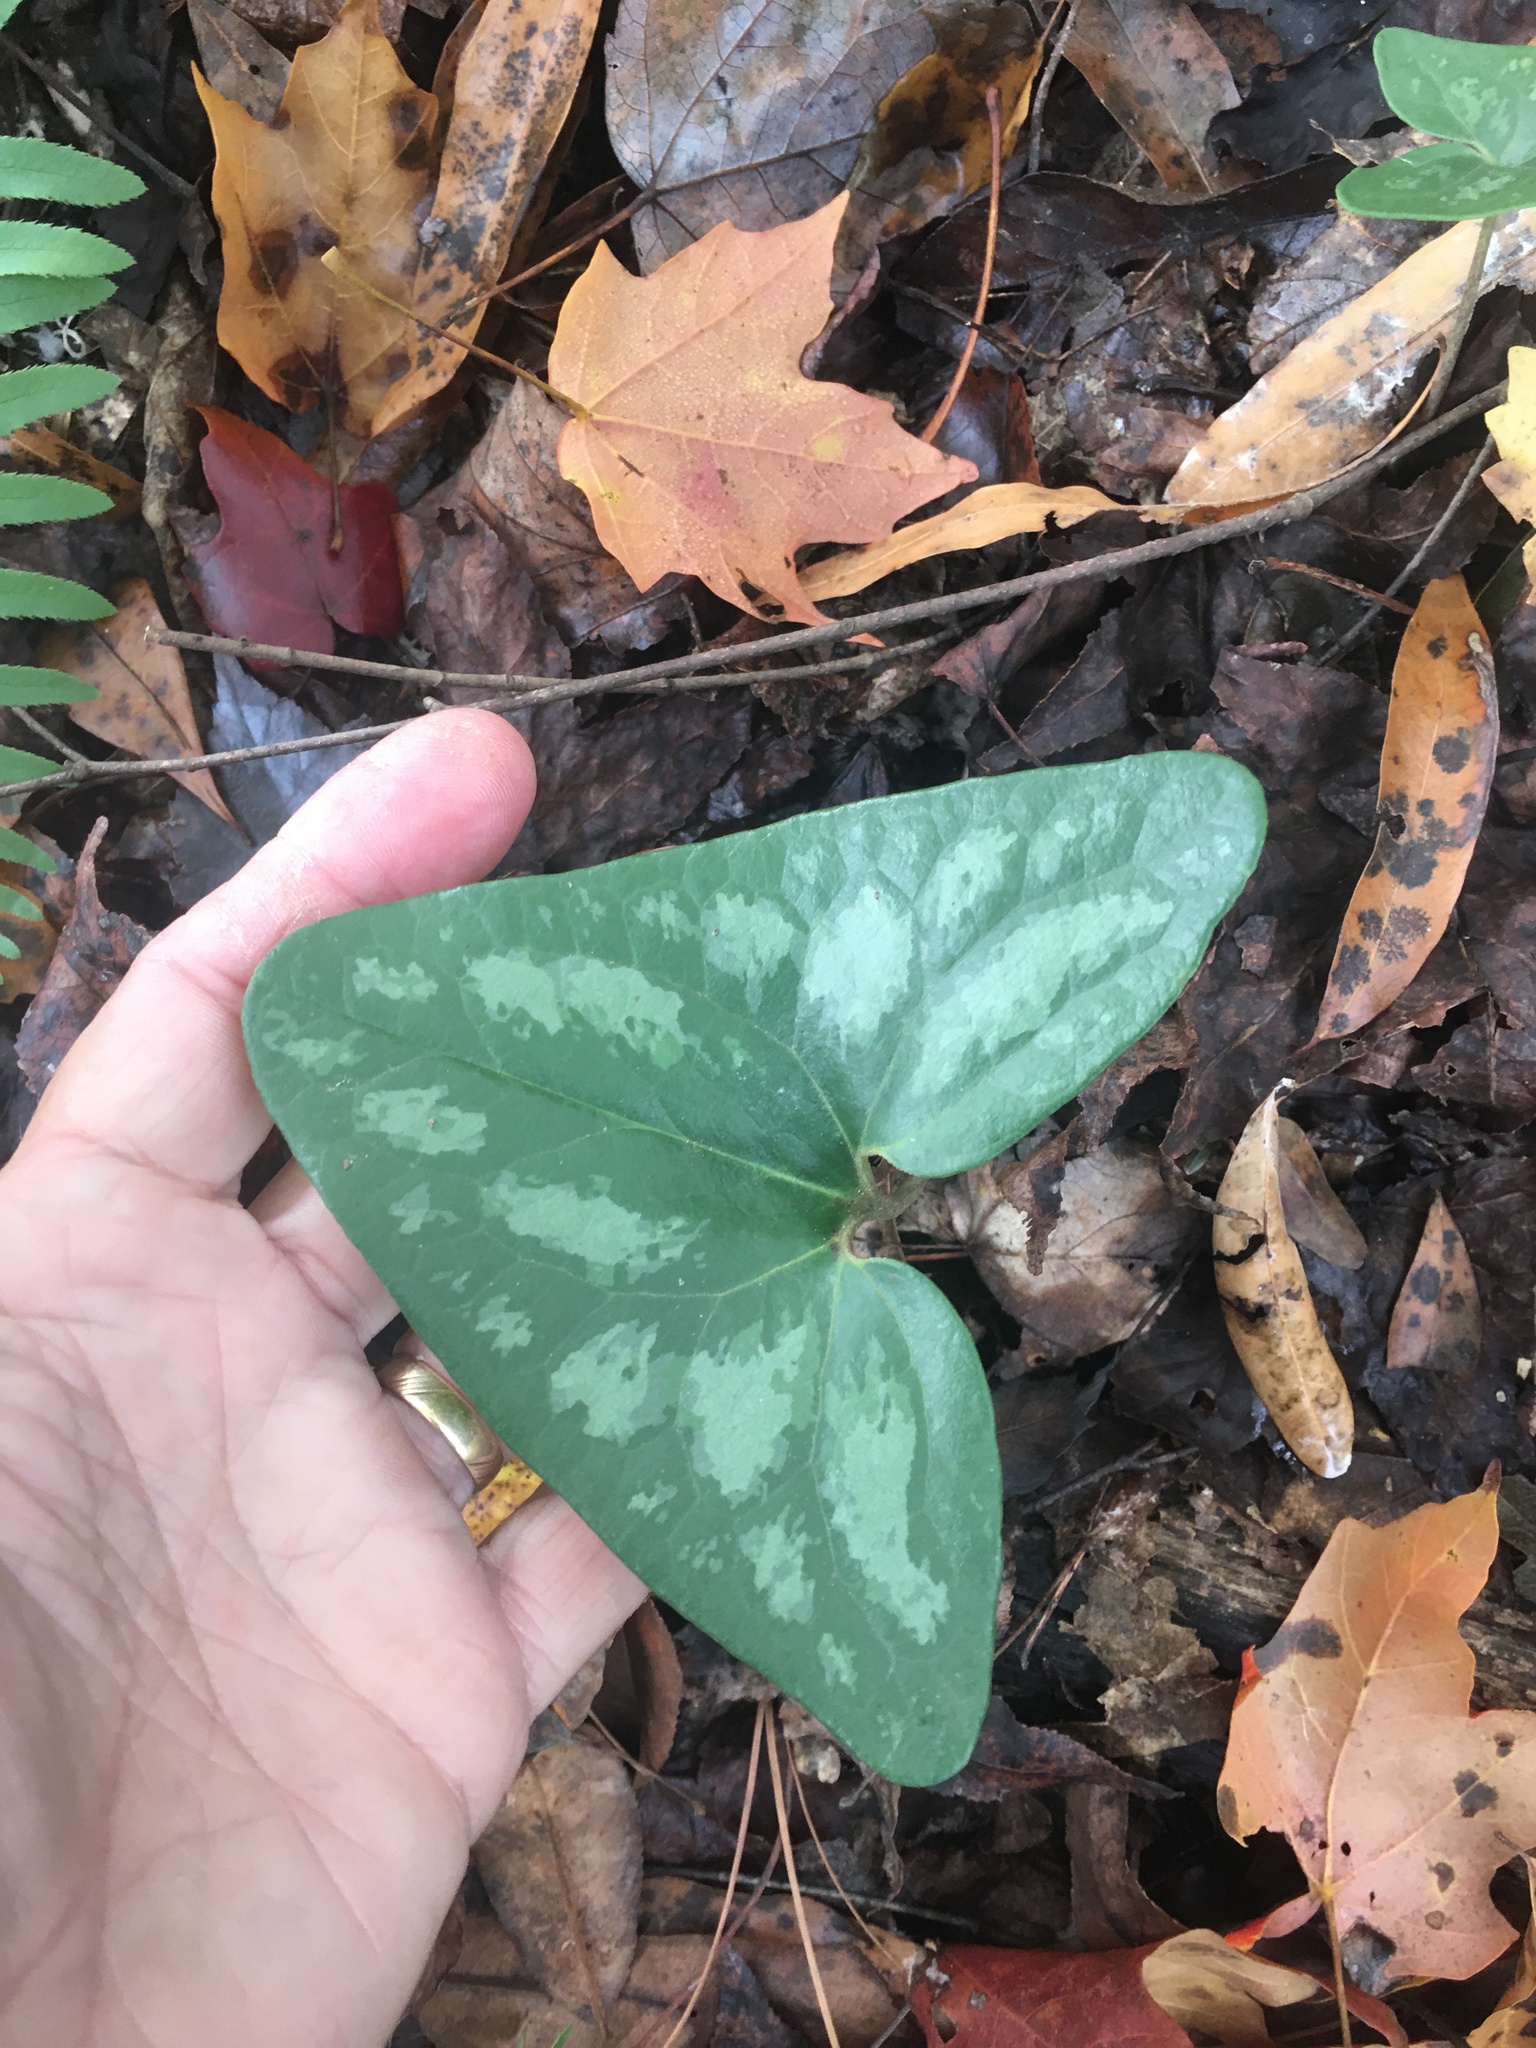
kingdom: Plantae
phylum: Tracheophyta
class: Magnoliopsida
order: Piperales
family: Aristolochiaceae
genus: Hexastylis
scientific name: Hexastylis arifolia
